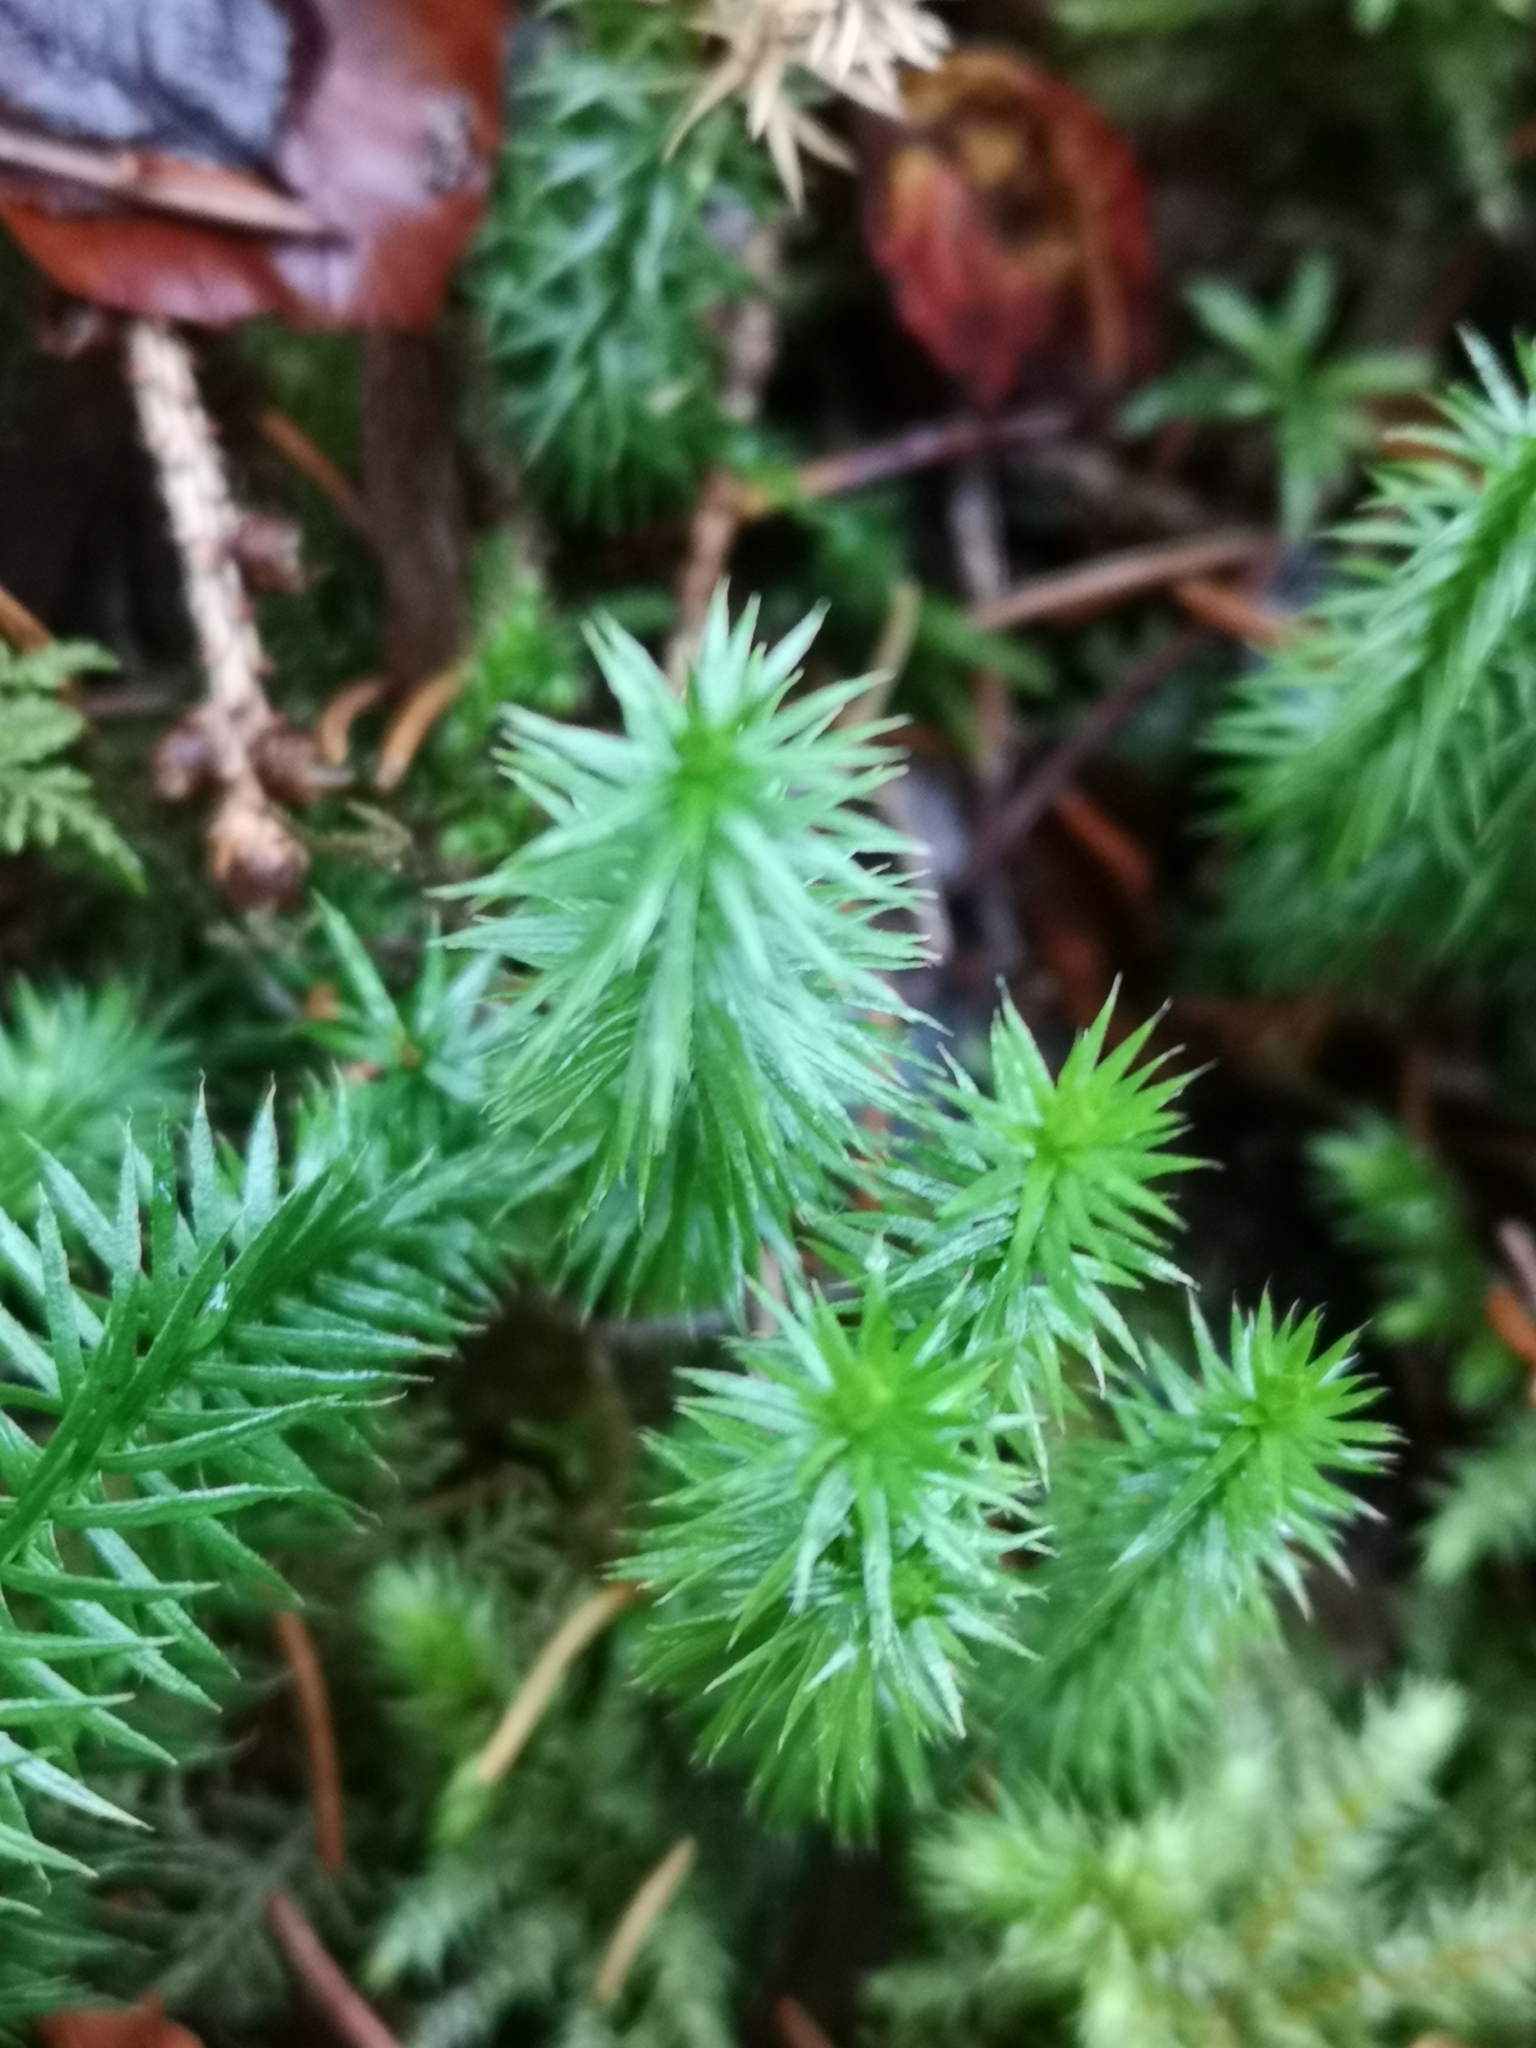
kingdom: Plantae
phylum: Tracheophyta
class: Lycopodiopsida
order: Lycopodiales
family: Lycopodiaceae
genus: Spinulum
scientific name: Spinulum annotinum
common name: Interrupted club-moss
